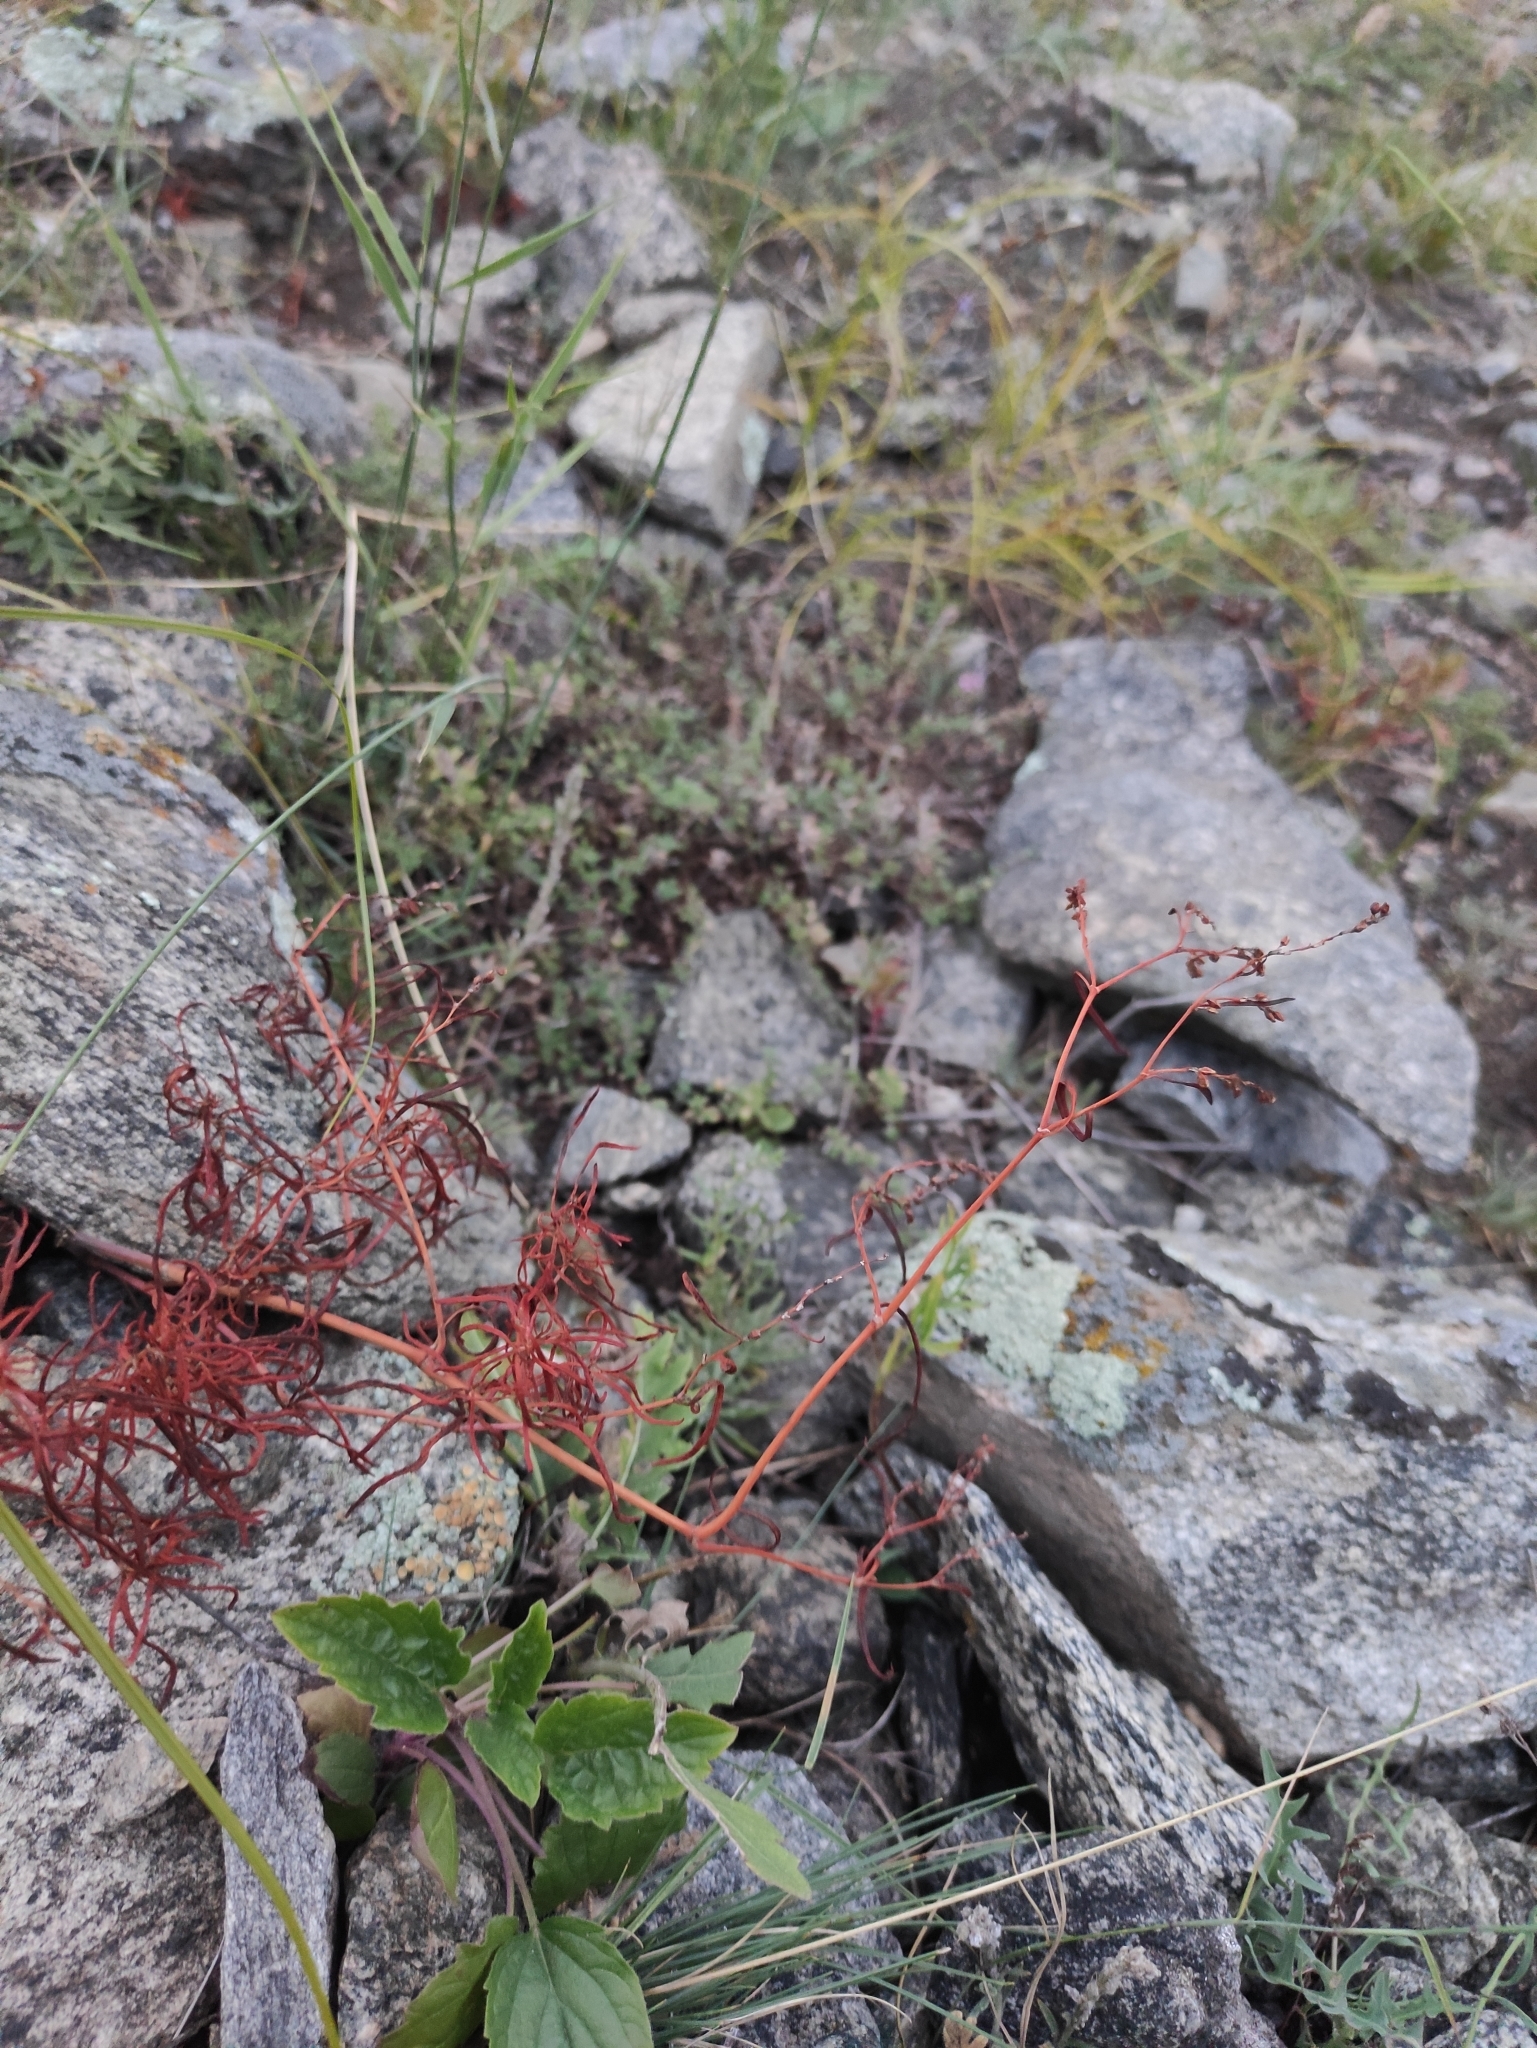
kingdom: Plantae
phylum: Tracheophyta
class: Magnoliopsida
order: Caryophyllales
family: Polygonaceae
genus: Persicaria
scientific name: Persicaria angustifolia
